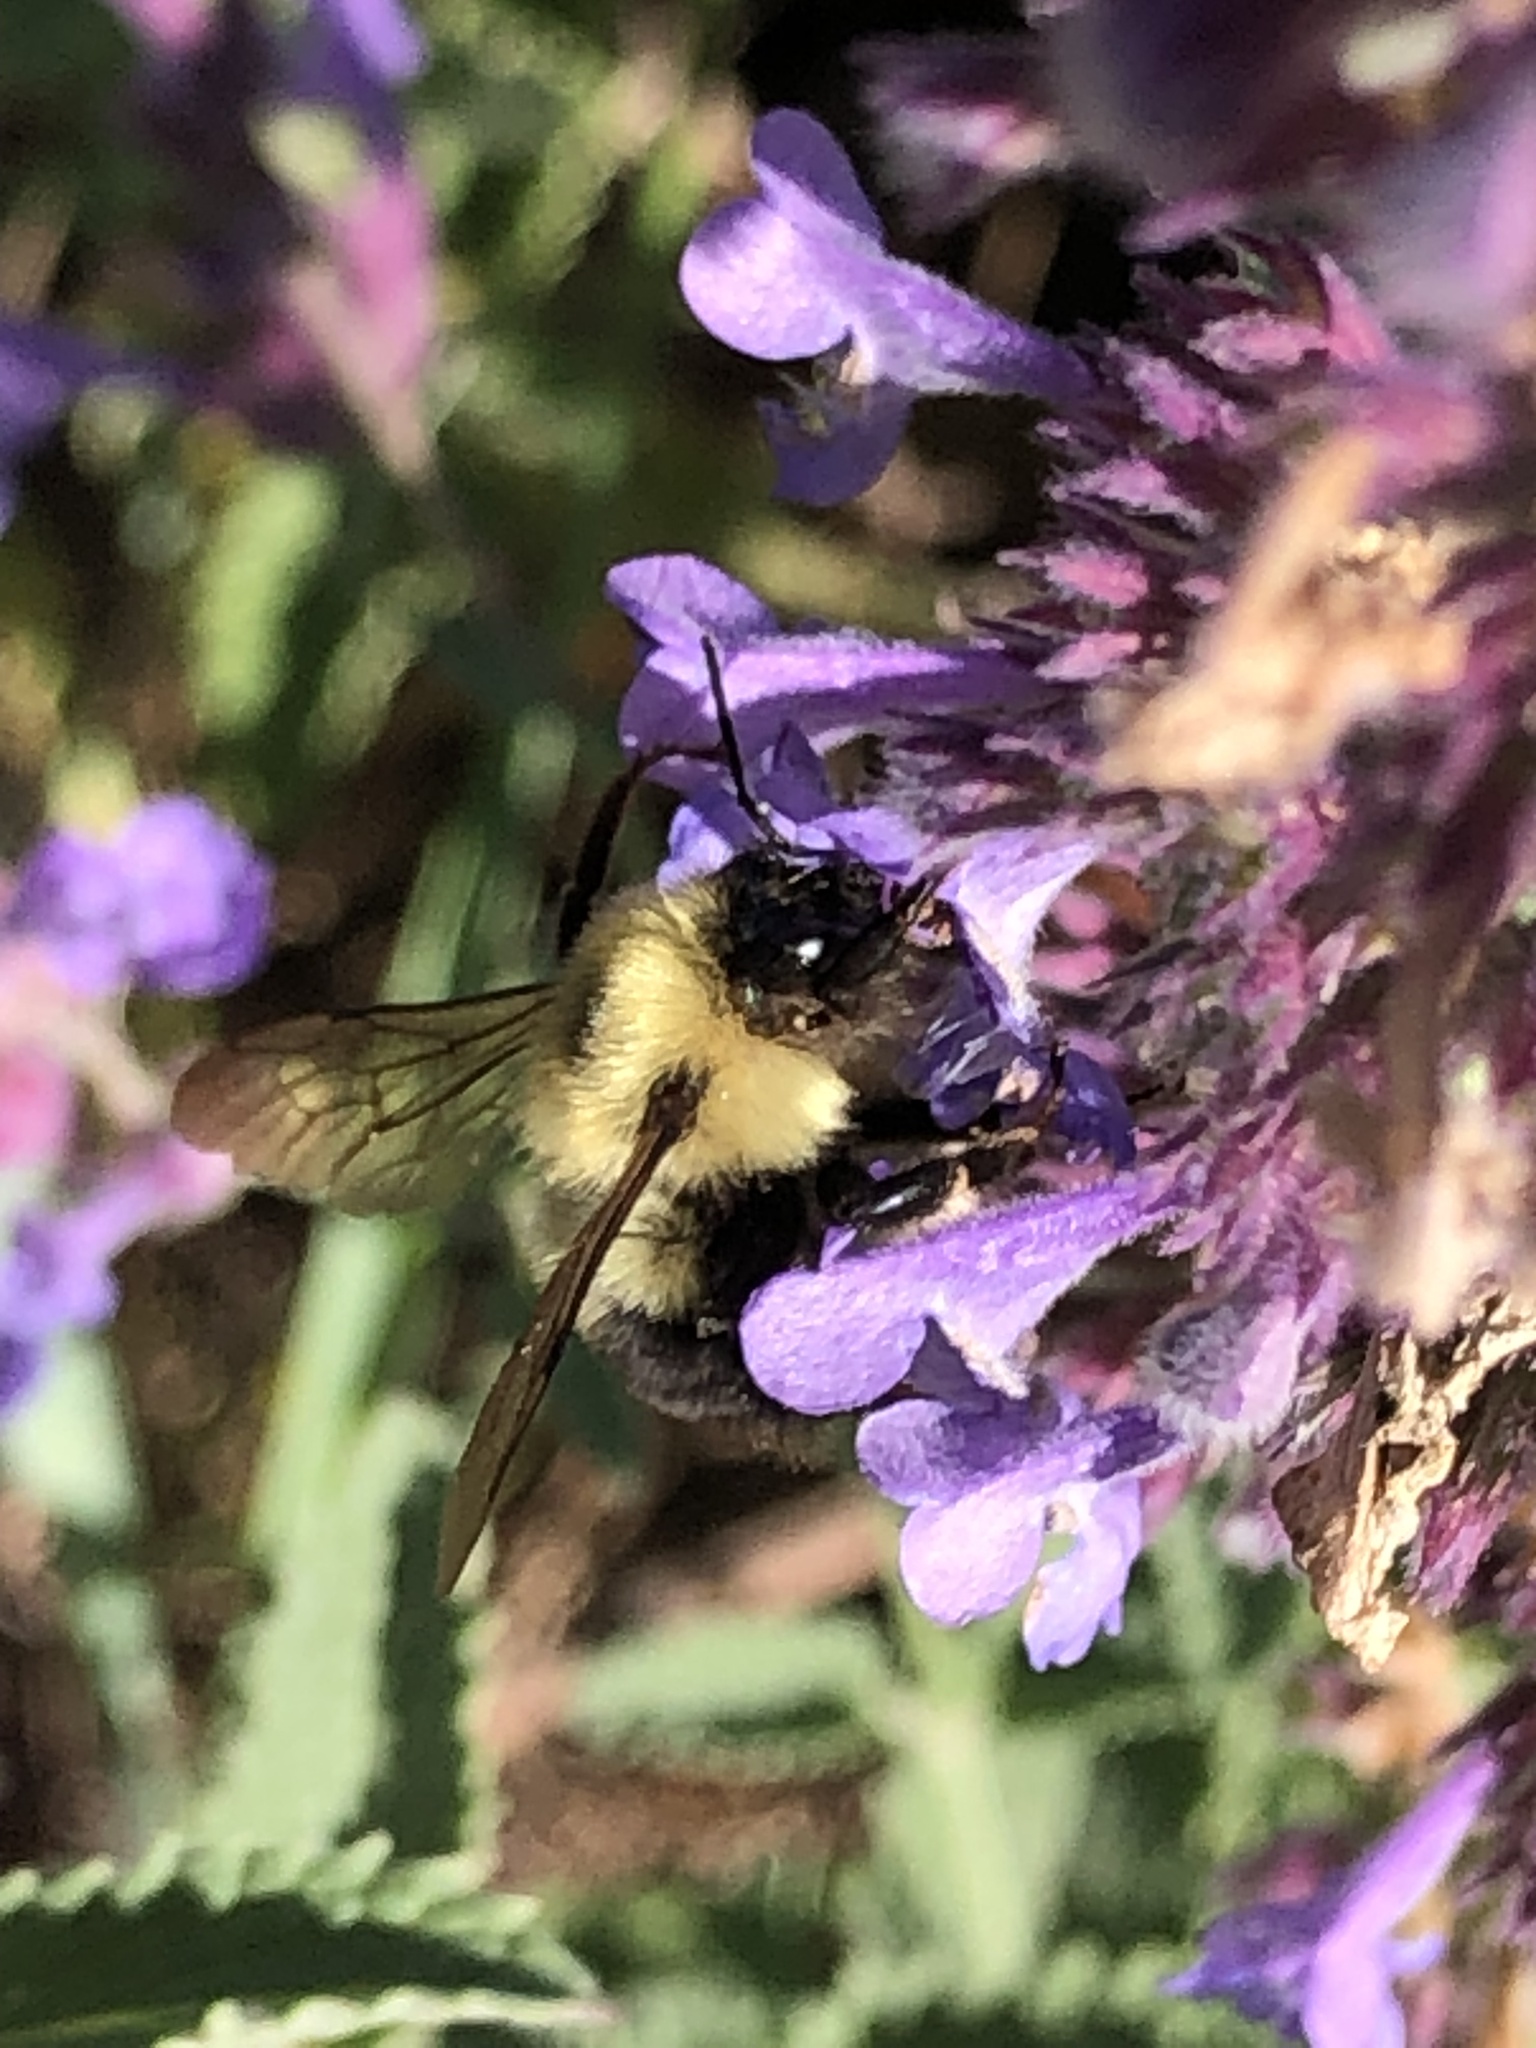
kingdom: Animalia
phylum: Arthropoda
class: Insecta
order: Hymenoptera
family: Apidae
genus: Bombus
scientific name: Bombus bimaculatus
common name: Two-spotted bumble bee
